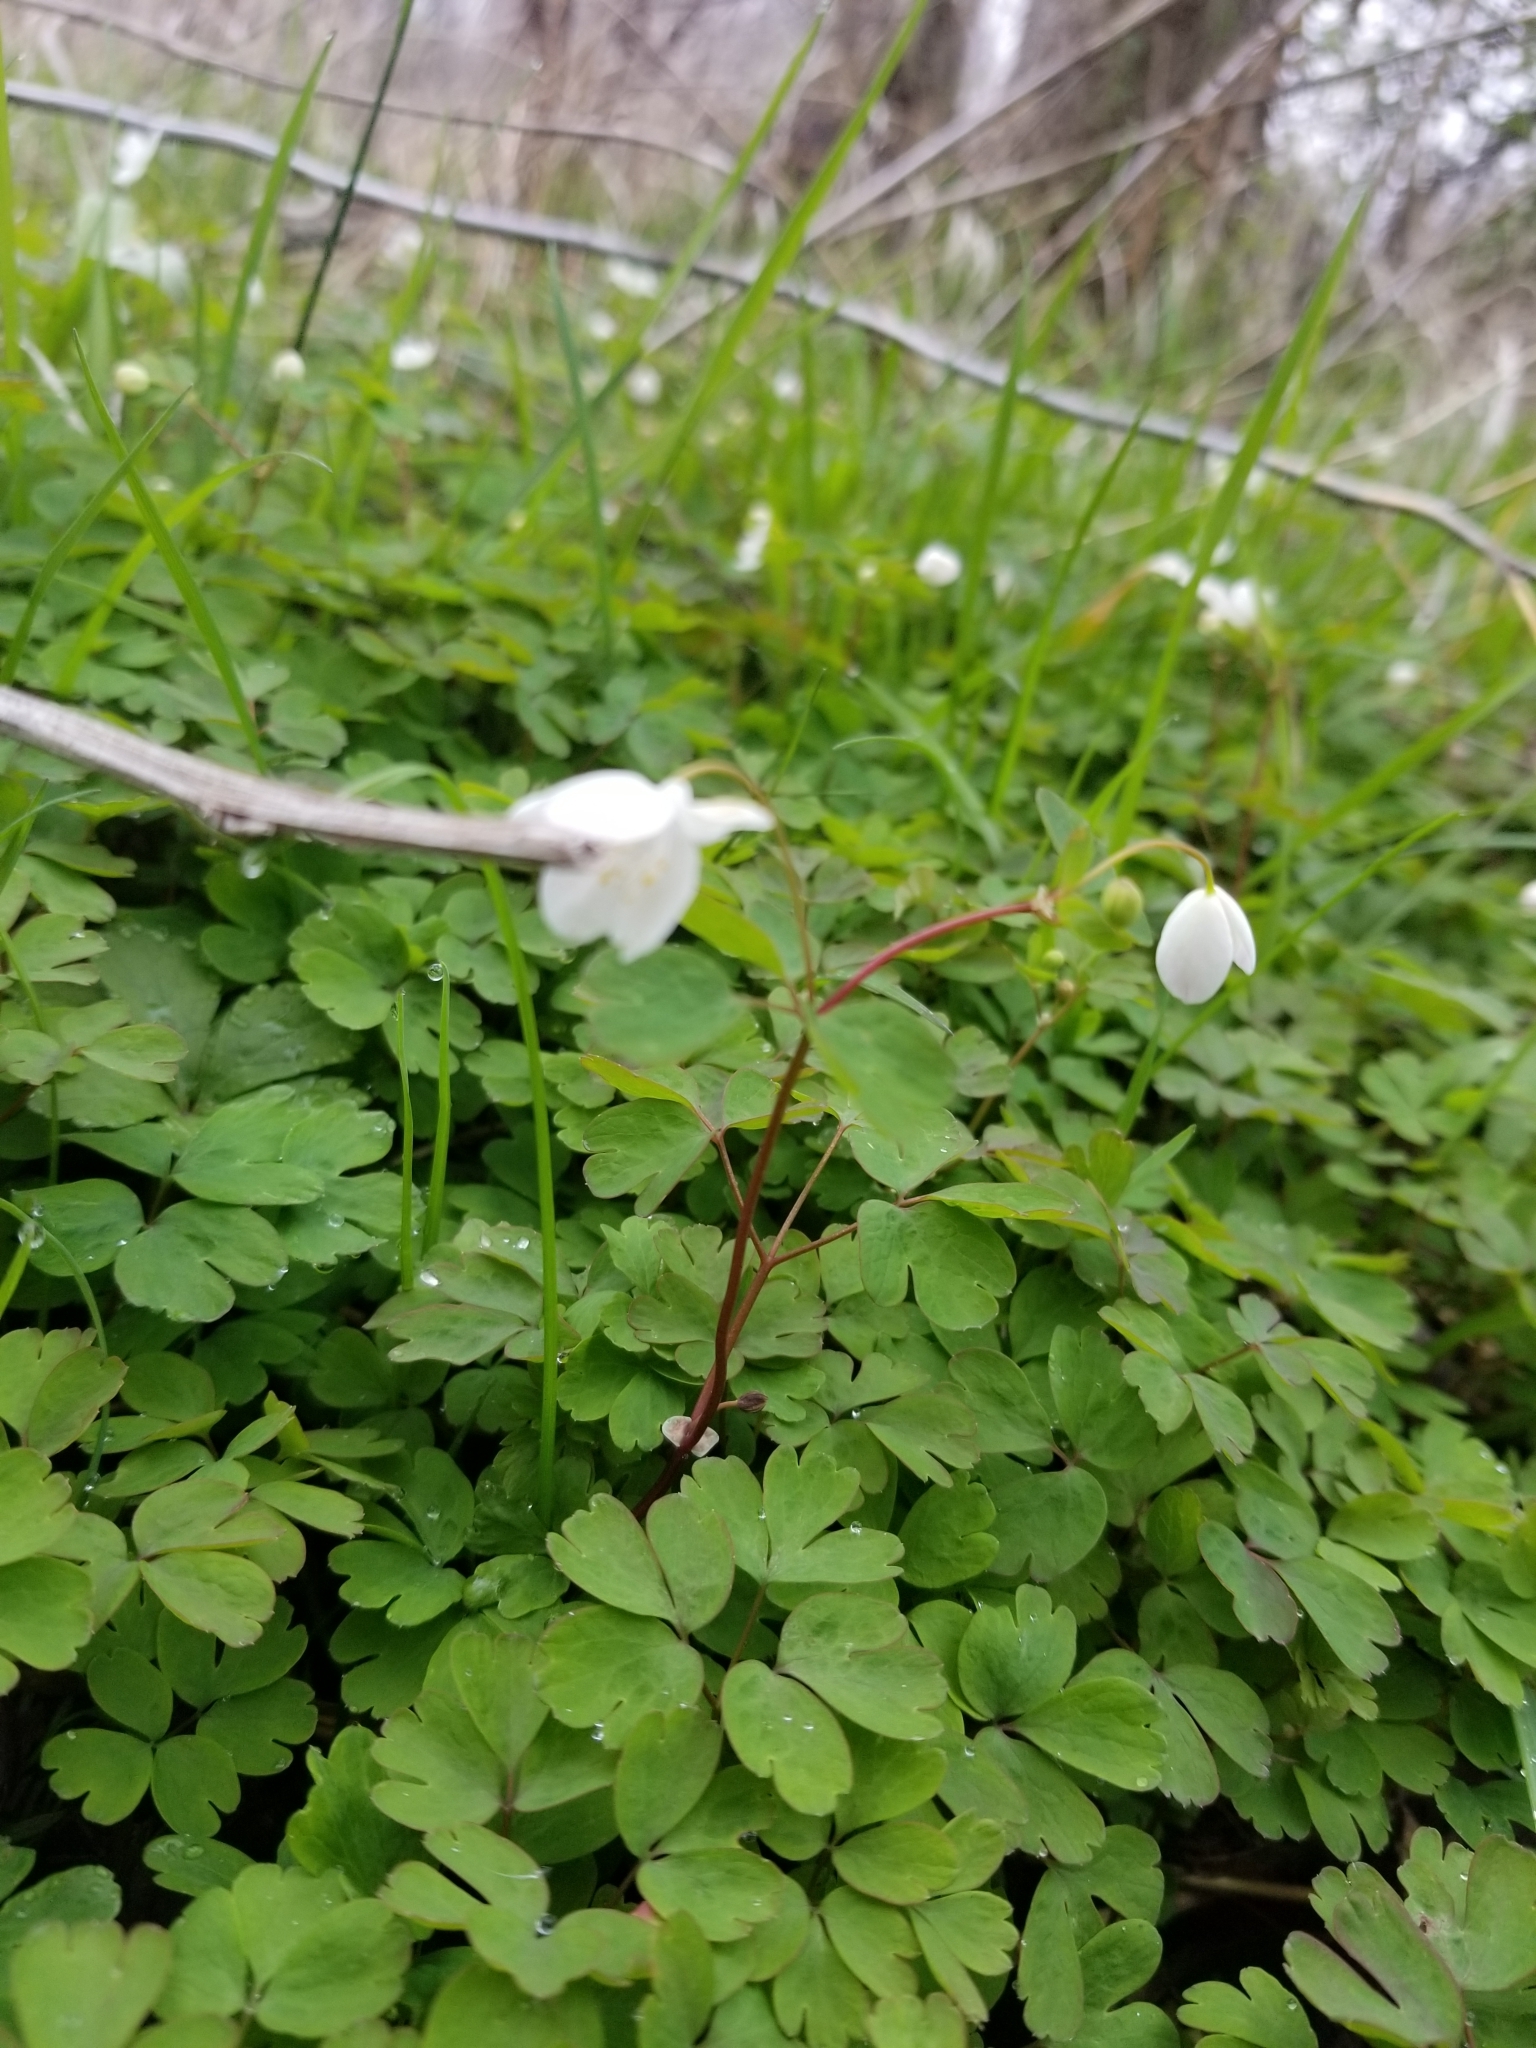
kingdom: Plantae
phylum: Tracheophyta
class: Magnoliopsida
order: Ranunculales
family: Ranunculaceae
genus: Enemion
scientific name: Enemion biternatum
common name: Eastern false rue-anemone
